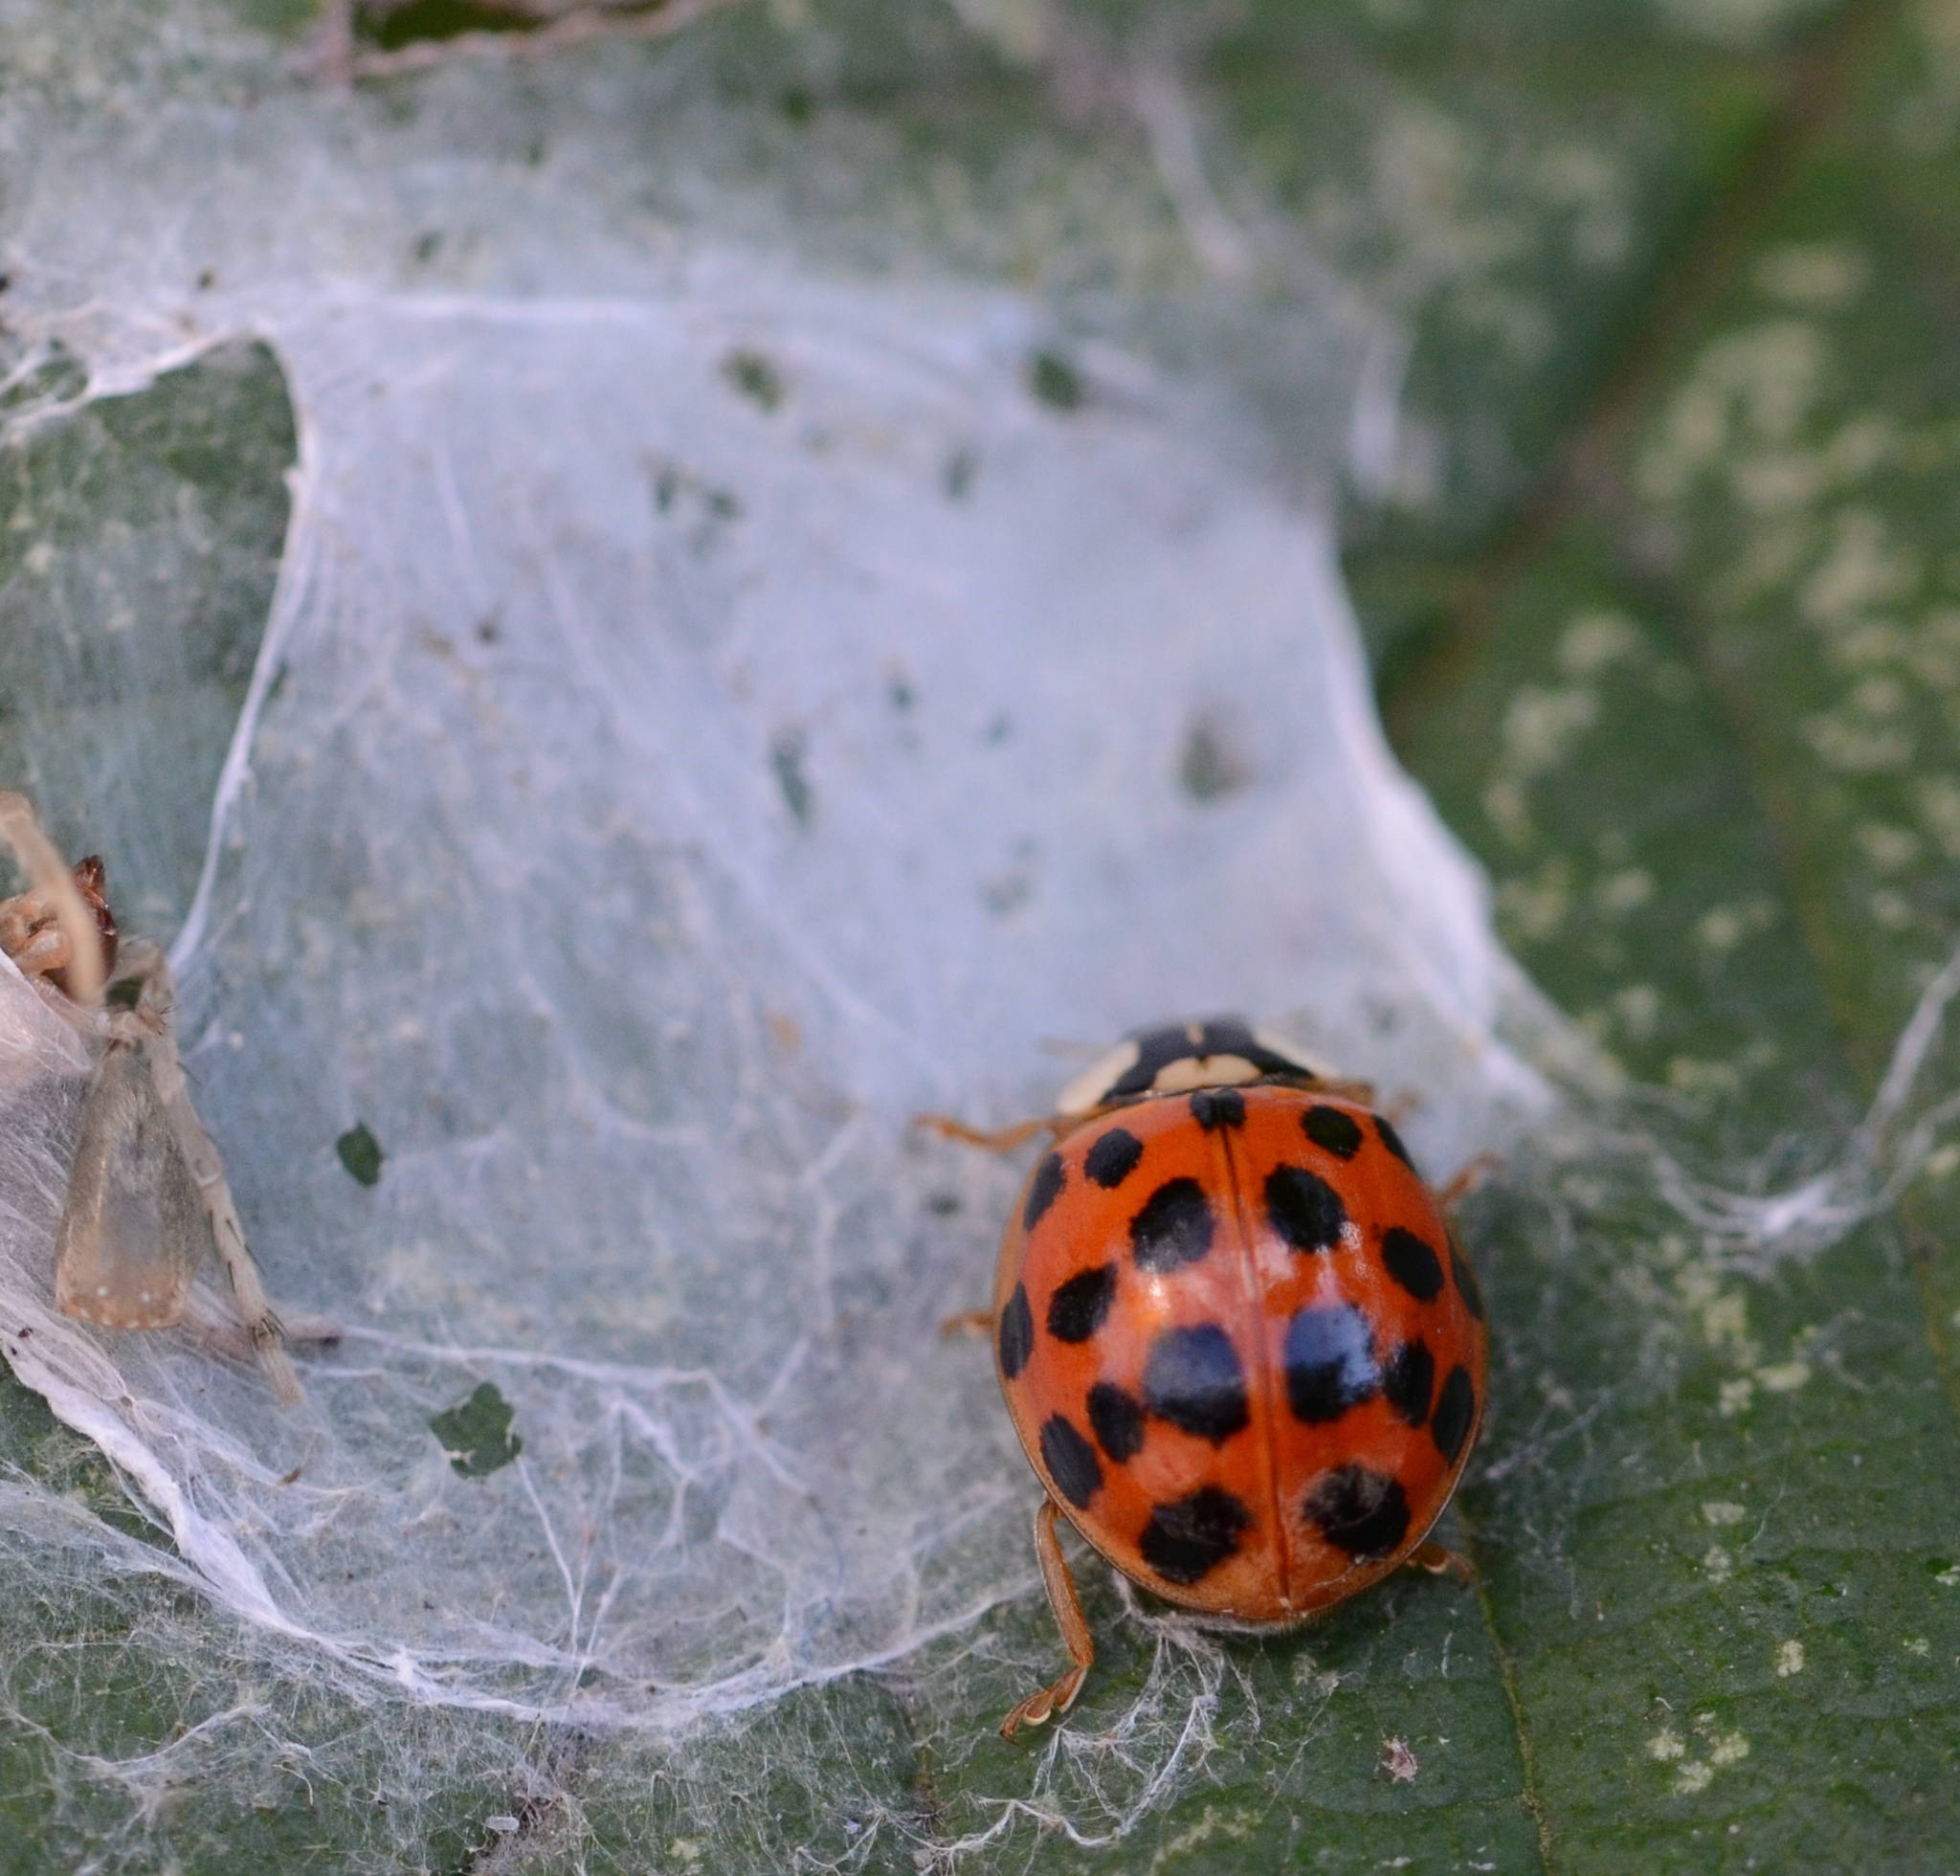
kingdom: Animalia
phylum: Arthropoda
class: Insecta
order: Coleoptera
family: Coccinellidae
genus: Harmonia
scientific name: Harmonia axyridis
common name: Harlequin ladybird
